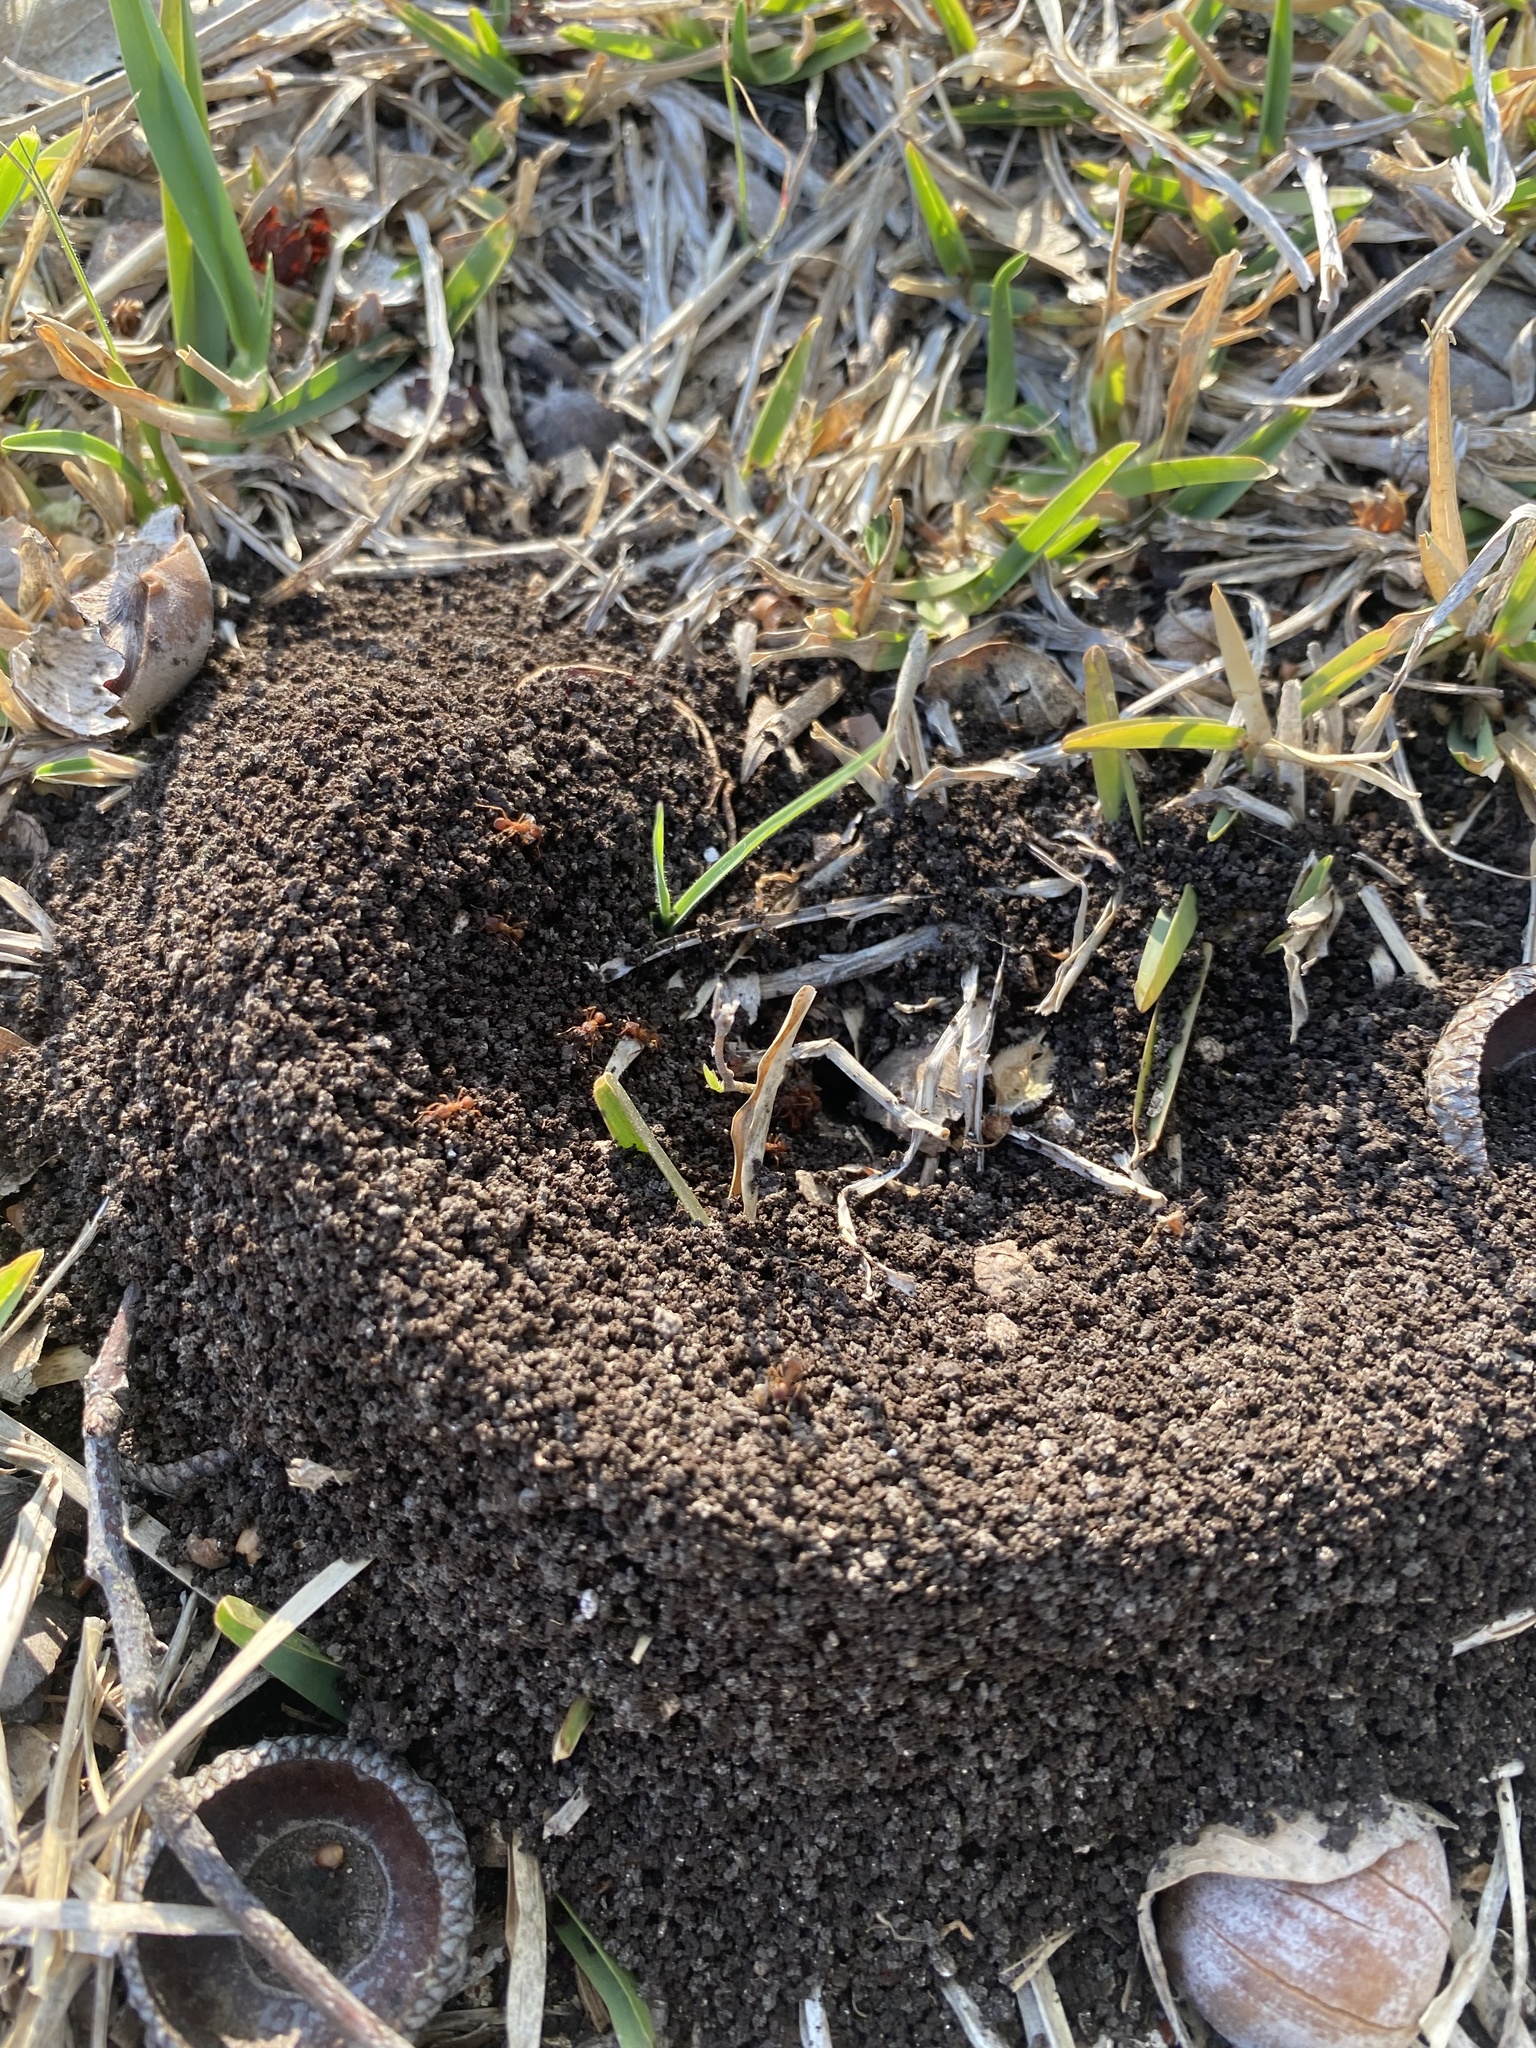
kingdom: Animalia
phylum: Arthropoda
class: Insecta
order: Hymenoptera
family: Formicidae
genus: Trachymyrmex
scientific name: Trachymyrmex septentrionalis
